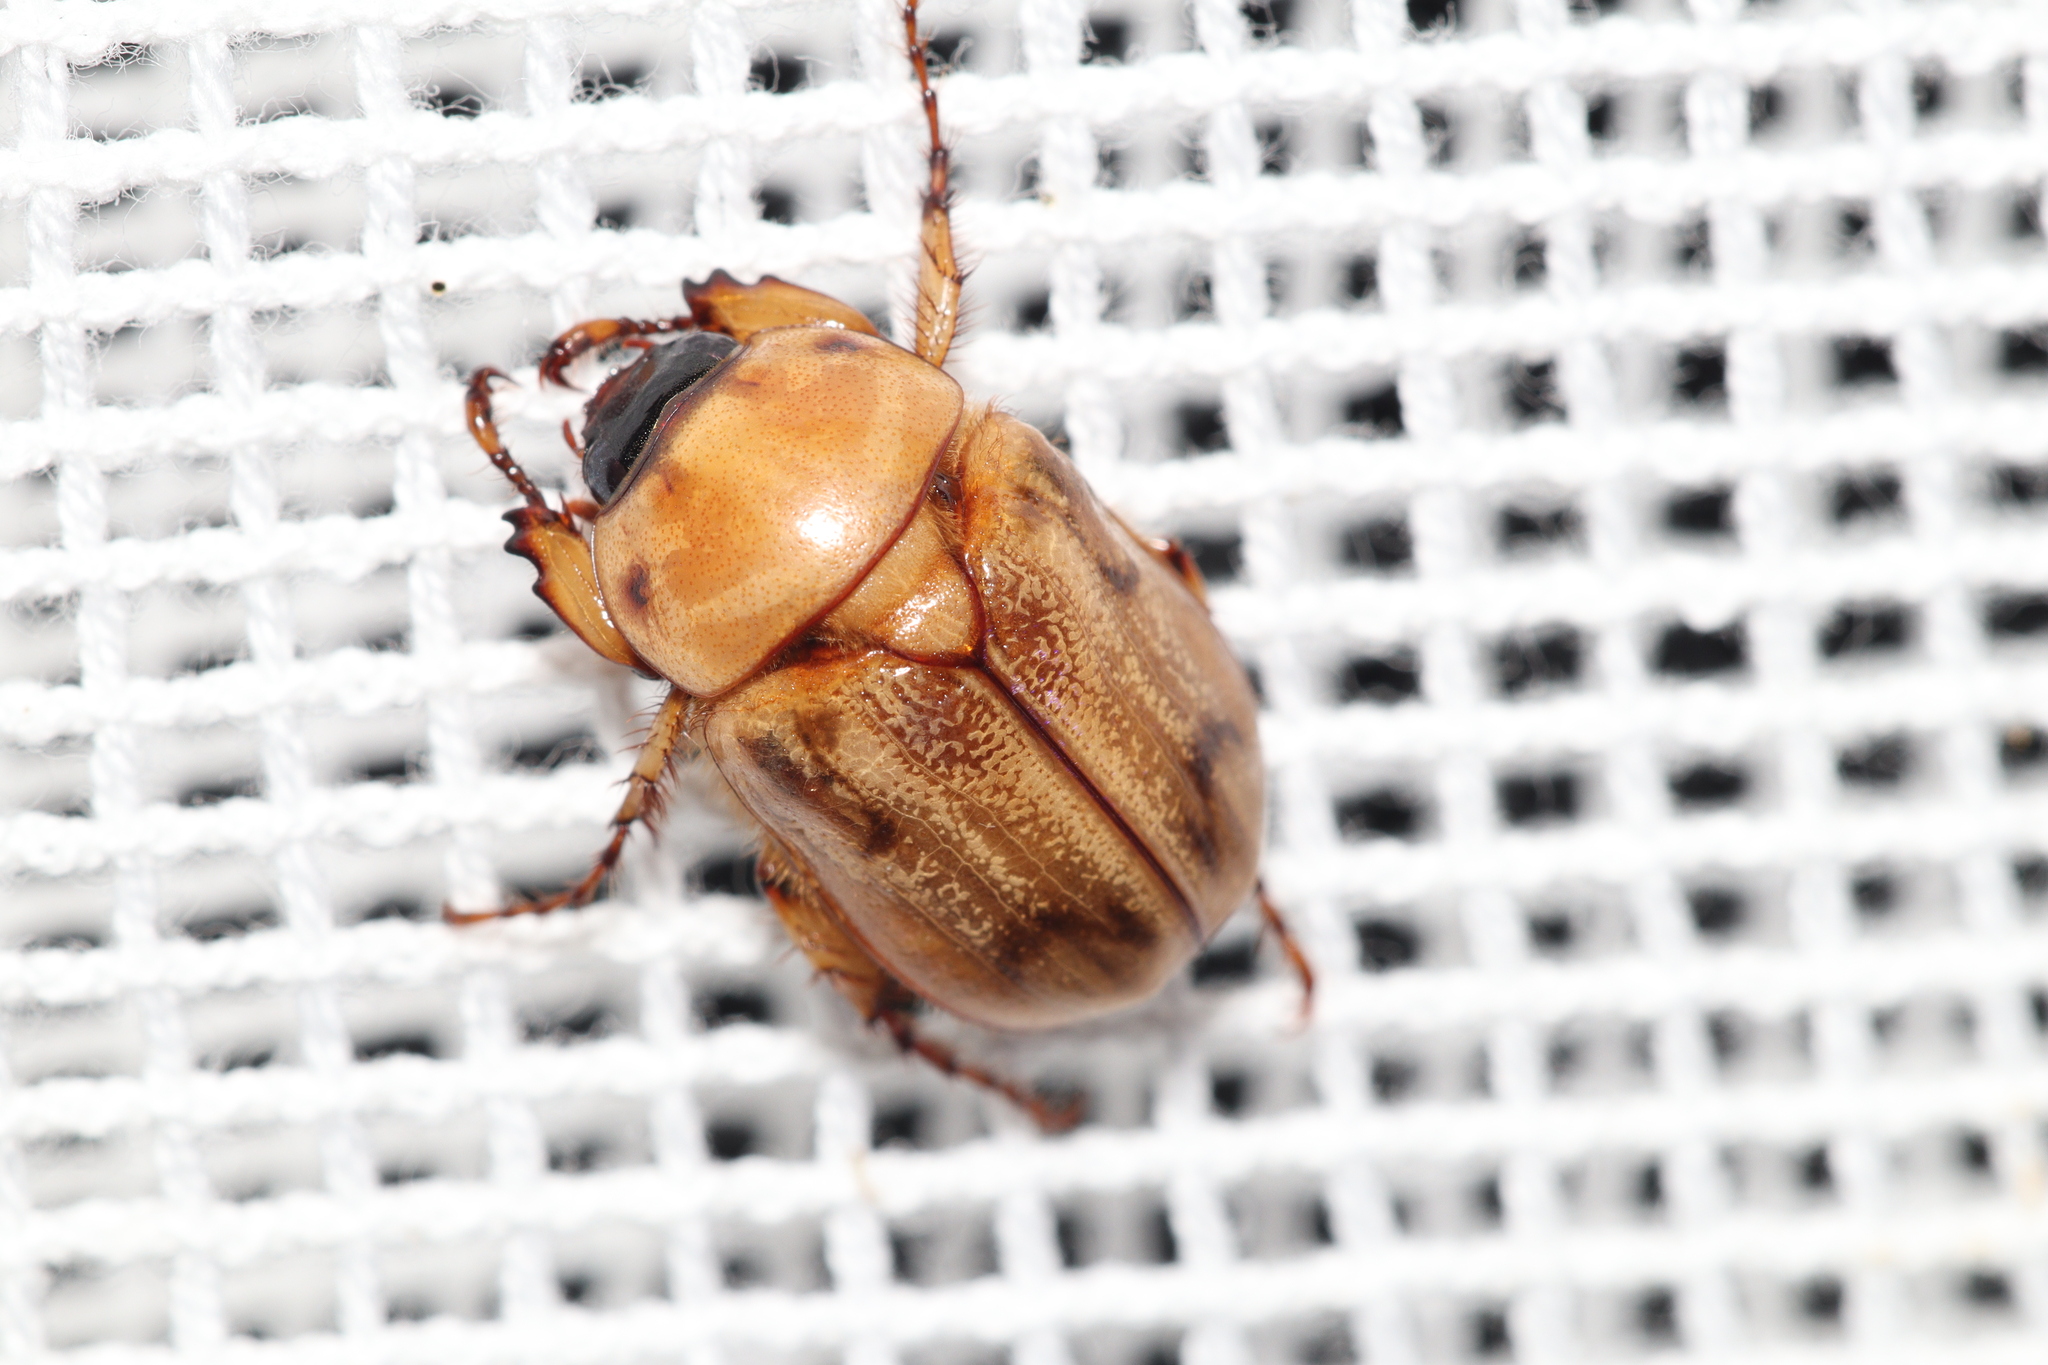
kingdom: Animalia
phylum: Arthropoda
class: Insecta
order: Coleoptera
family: Scarabaeidae
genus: Cyclocephala
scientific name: Cyclocephala signaticollis
